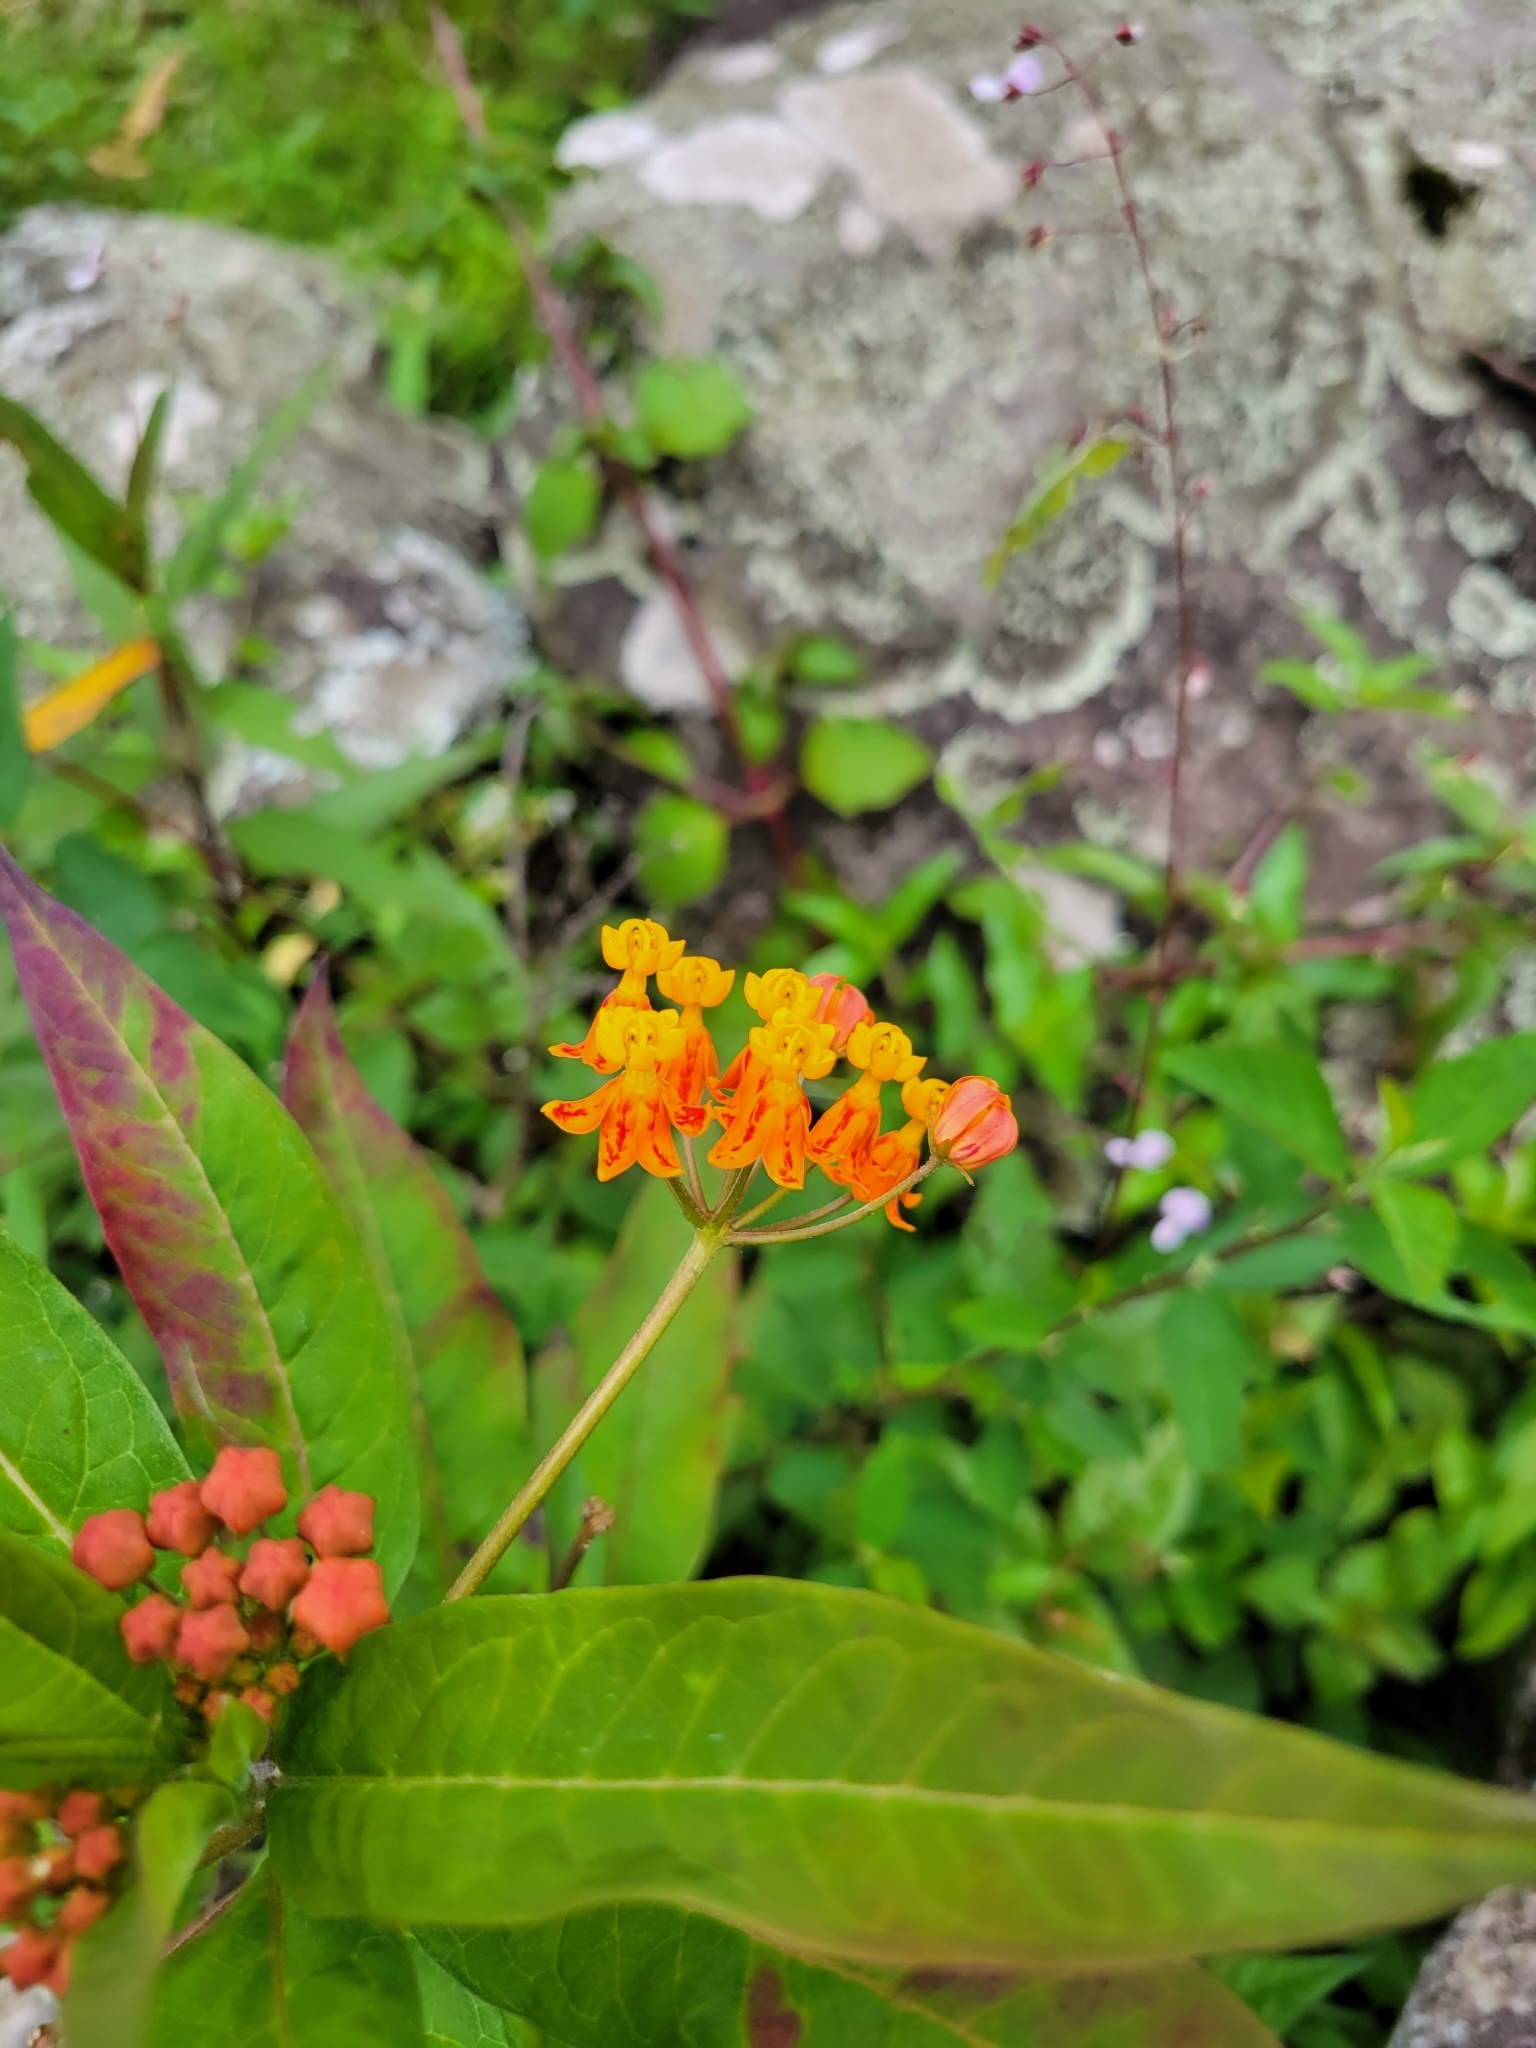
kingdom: Plantae
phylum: Tracheophyta
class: Magnoliopsida
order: Gentianales
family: Apocynaceae
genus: Asclepias
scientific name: Asclepias curassavica
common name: Bloodflower
